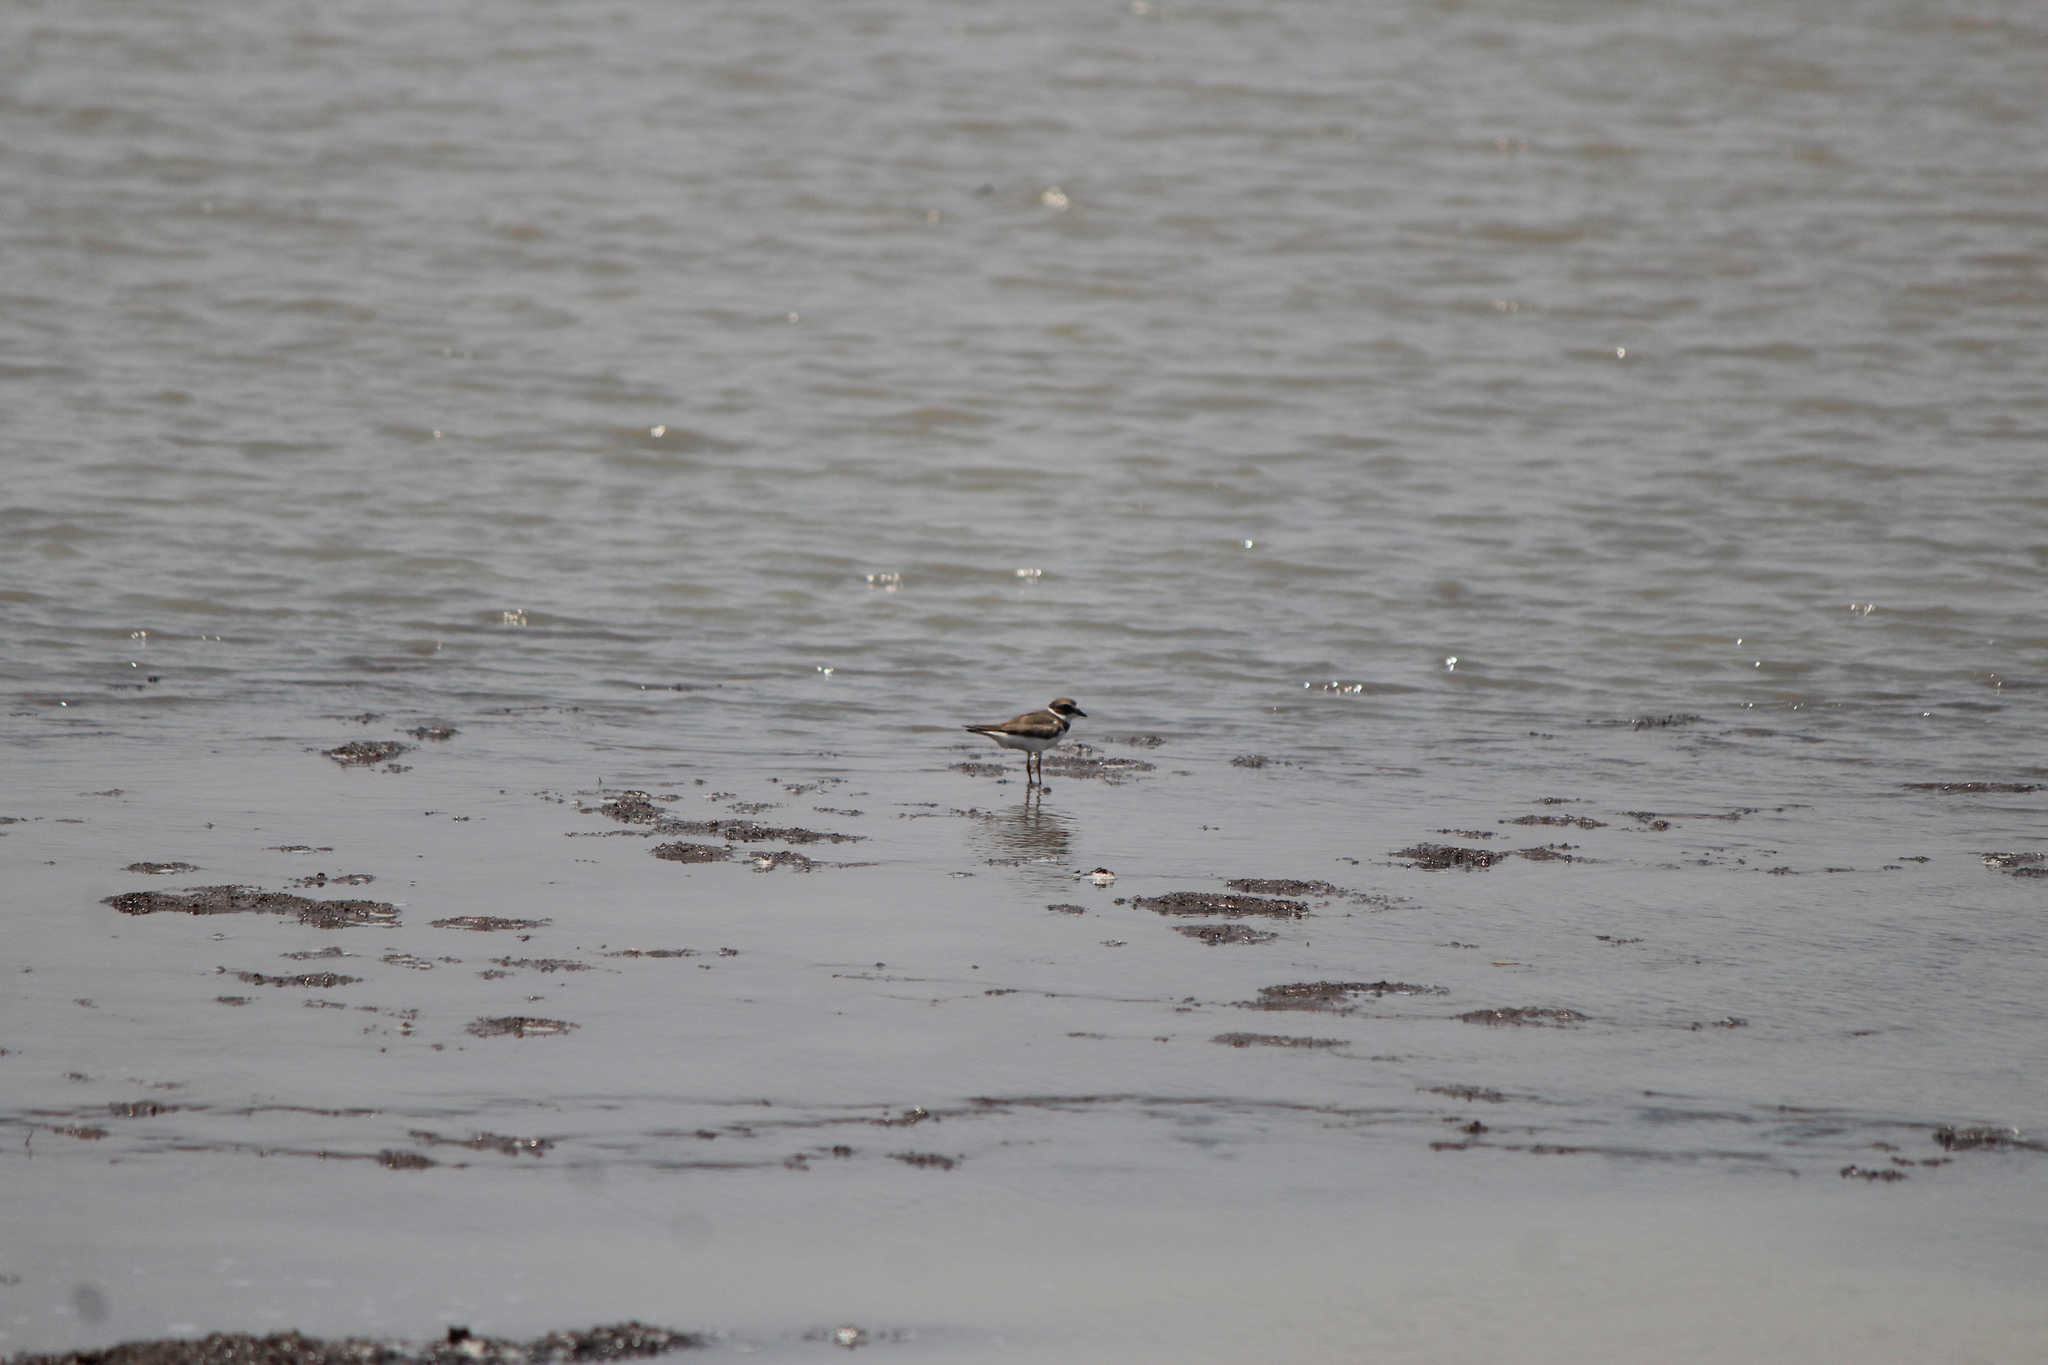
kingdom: Animalia
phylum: Chordata
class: Aves
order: Charadriiformes
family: Charadriidae
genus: Charadrius
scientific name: Charadrius semipalmatus
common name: Semipalmated plover
